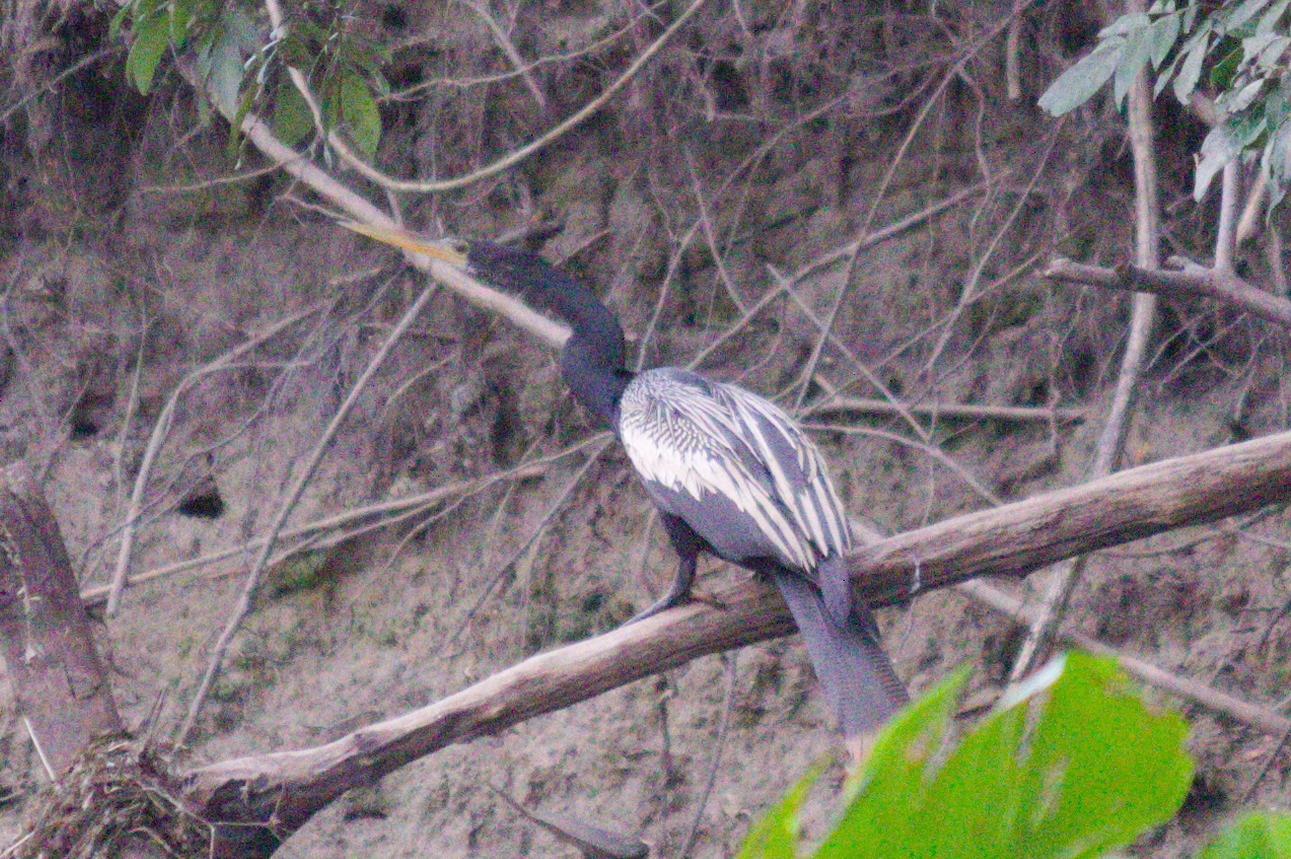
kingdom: Animalia
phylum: Chordata
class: Aves
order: Suliformes
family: Anhingidae
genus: Anhinga
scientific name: Anhinga anhinga
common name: Anhinga
